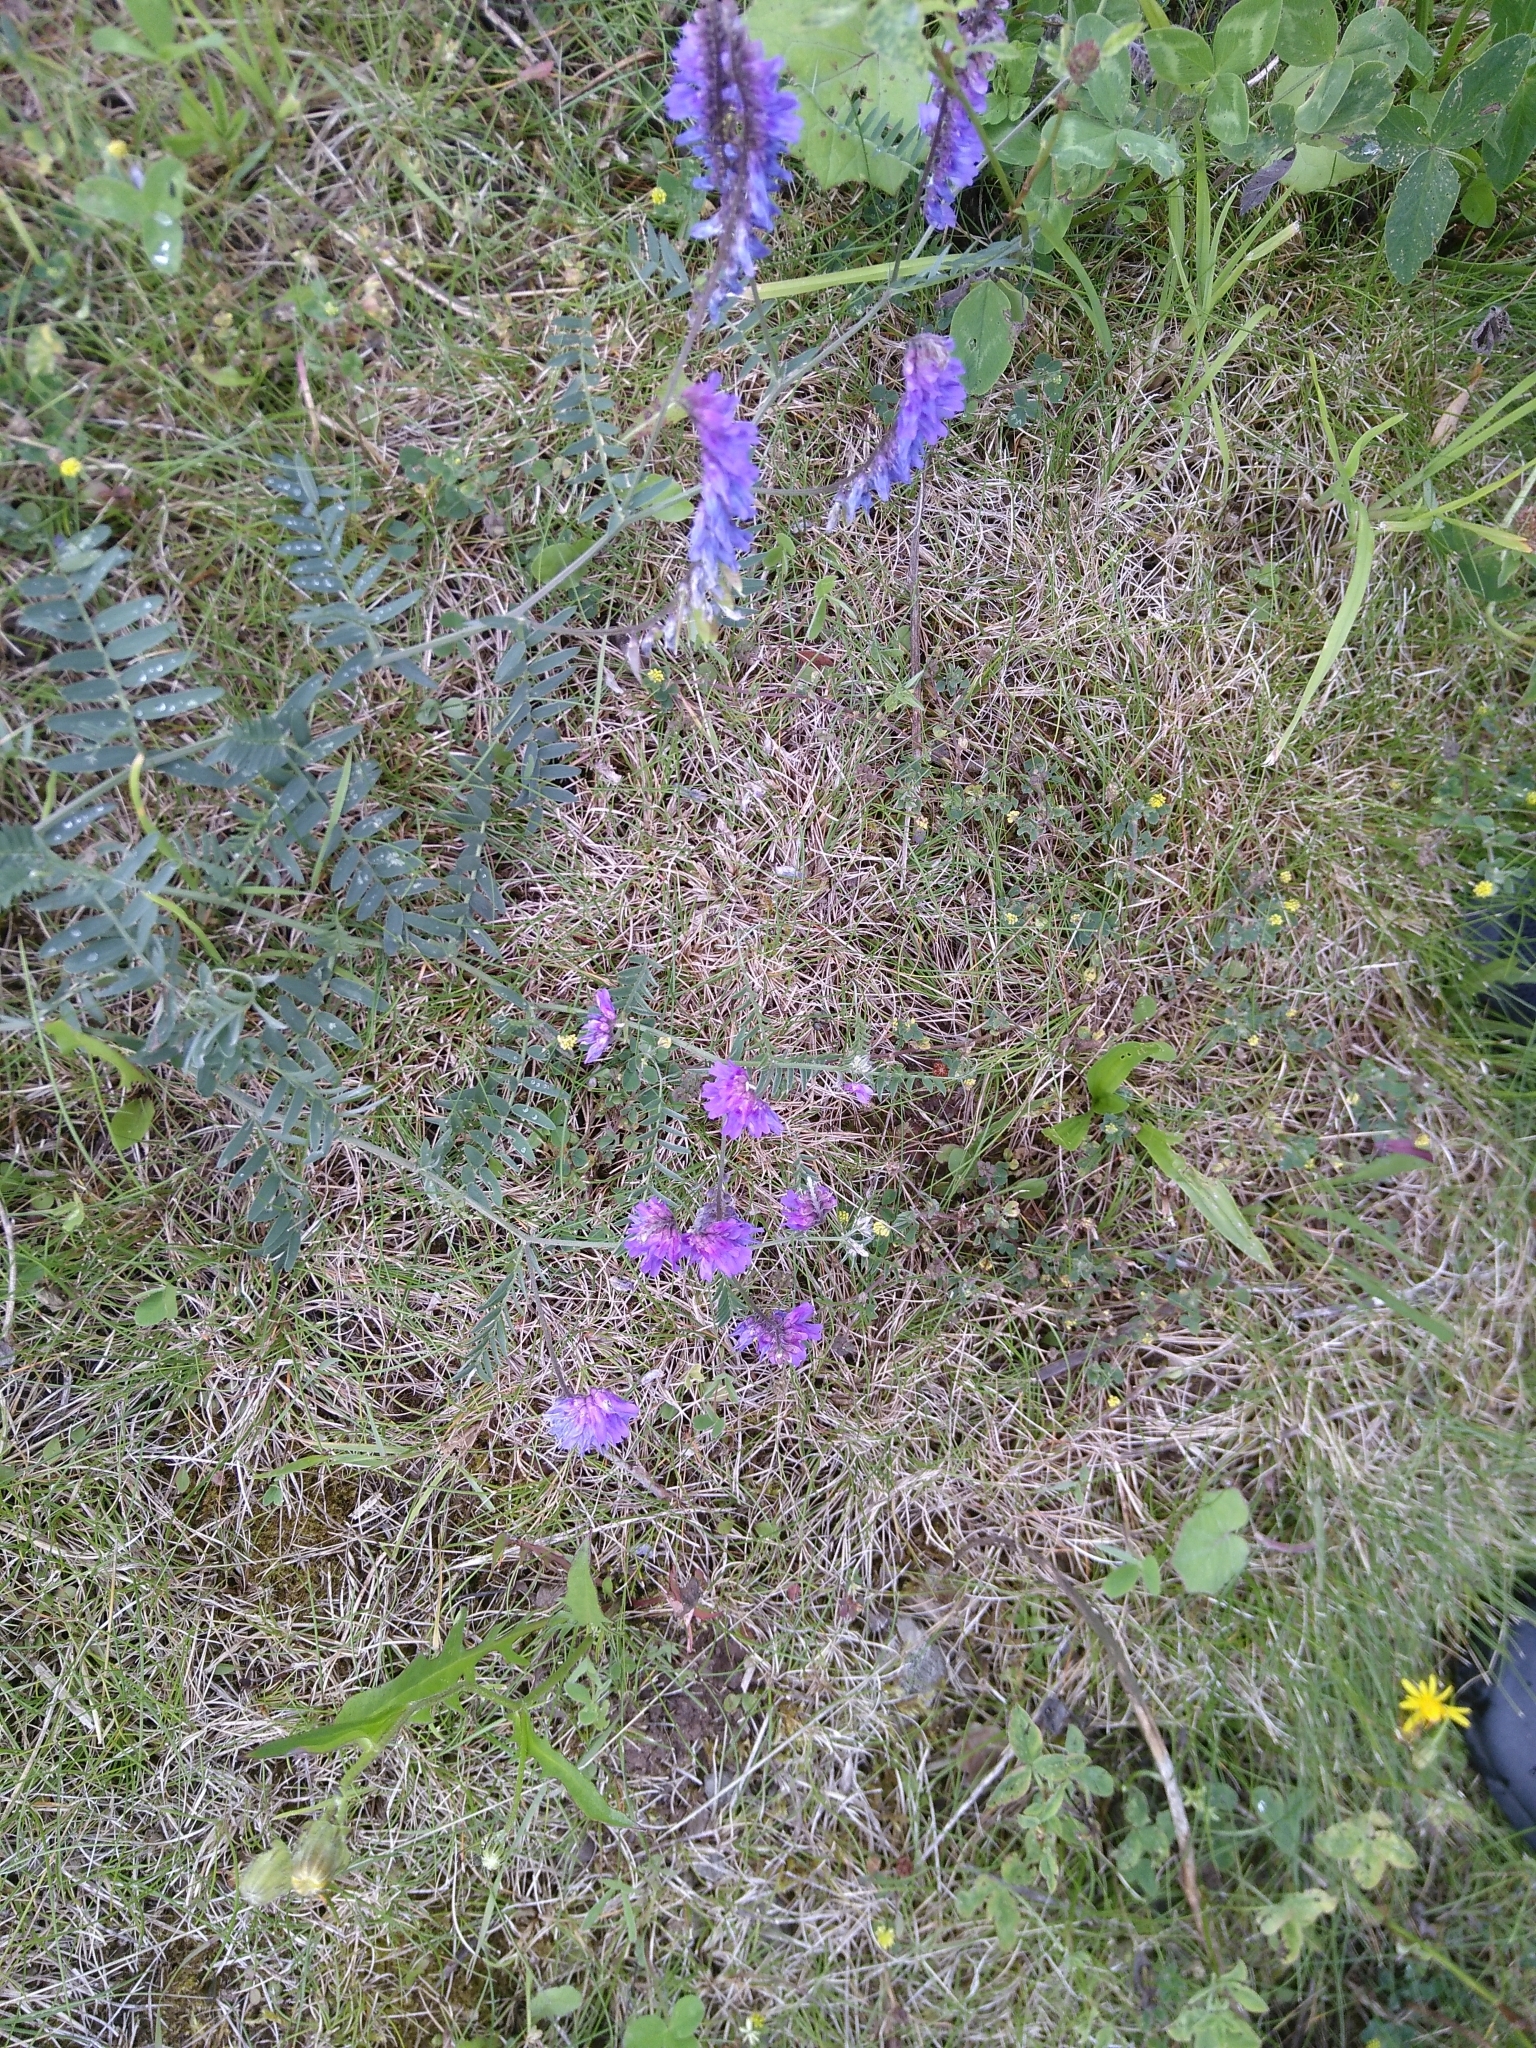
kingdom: Plantae
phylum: Tracheophyta
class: Magnoliopsida
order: Fabales
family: Fabaceae
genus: Vicia
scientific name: Vicia cracca
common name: Bird vetch
